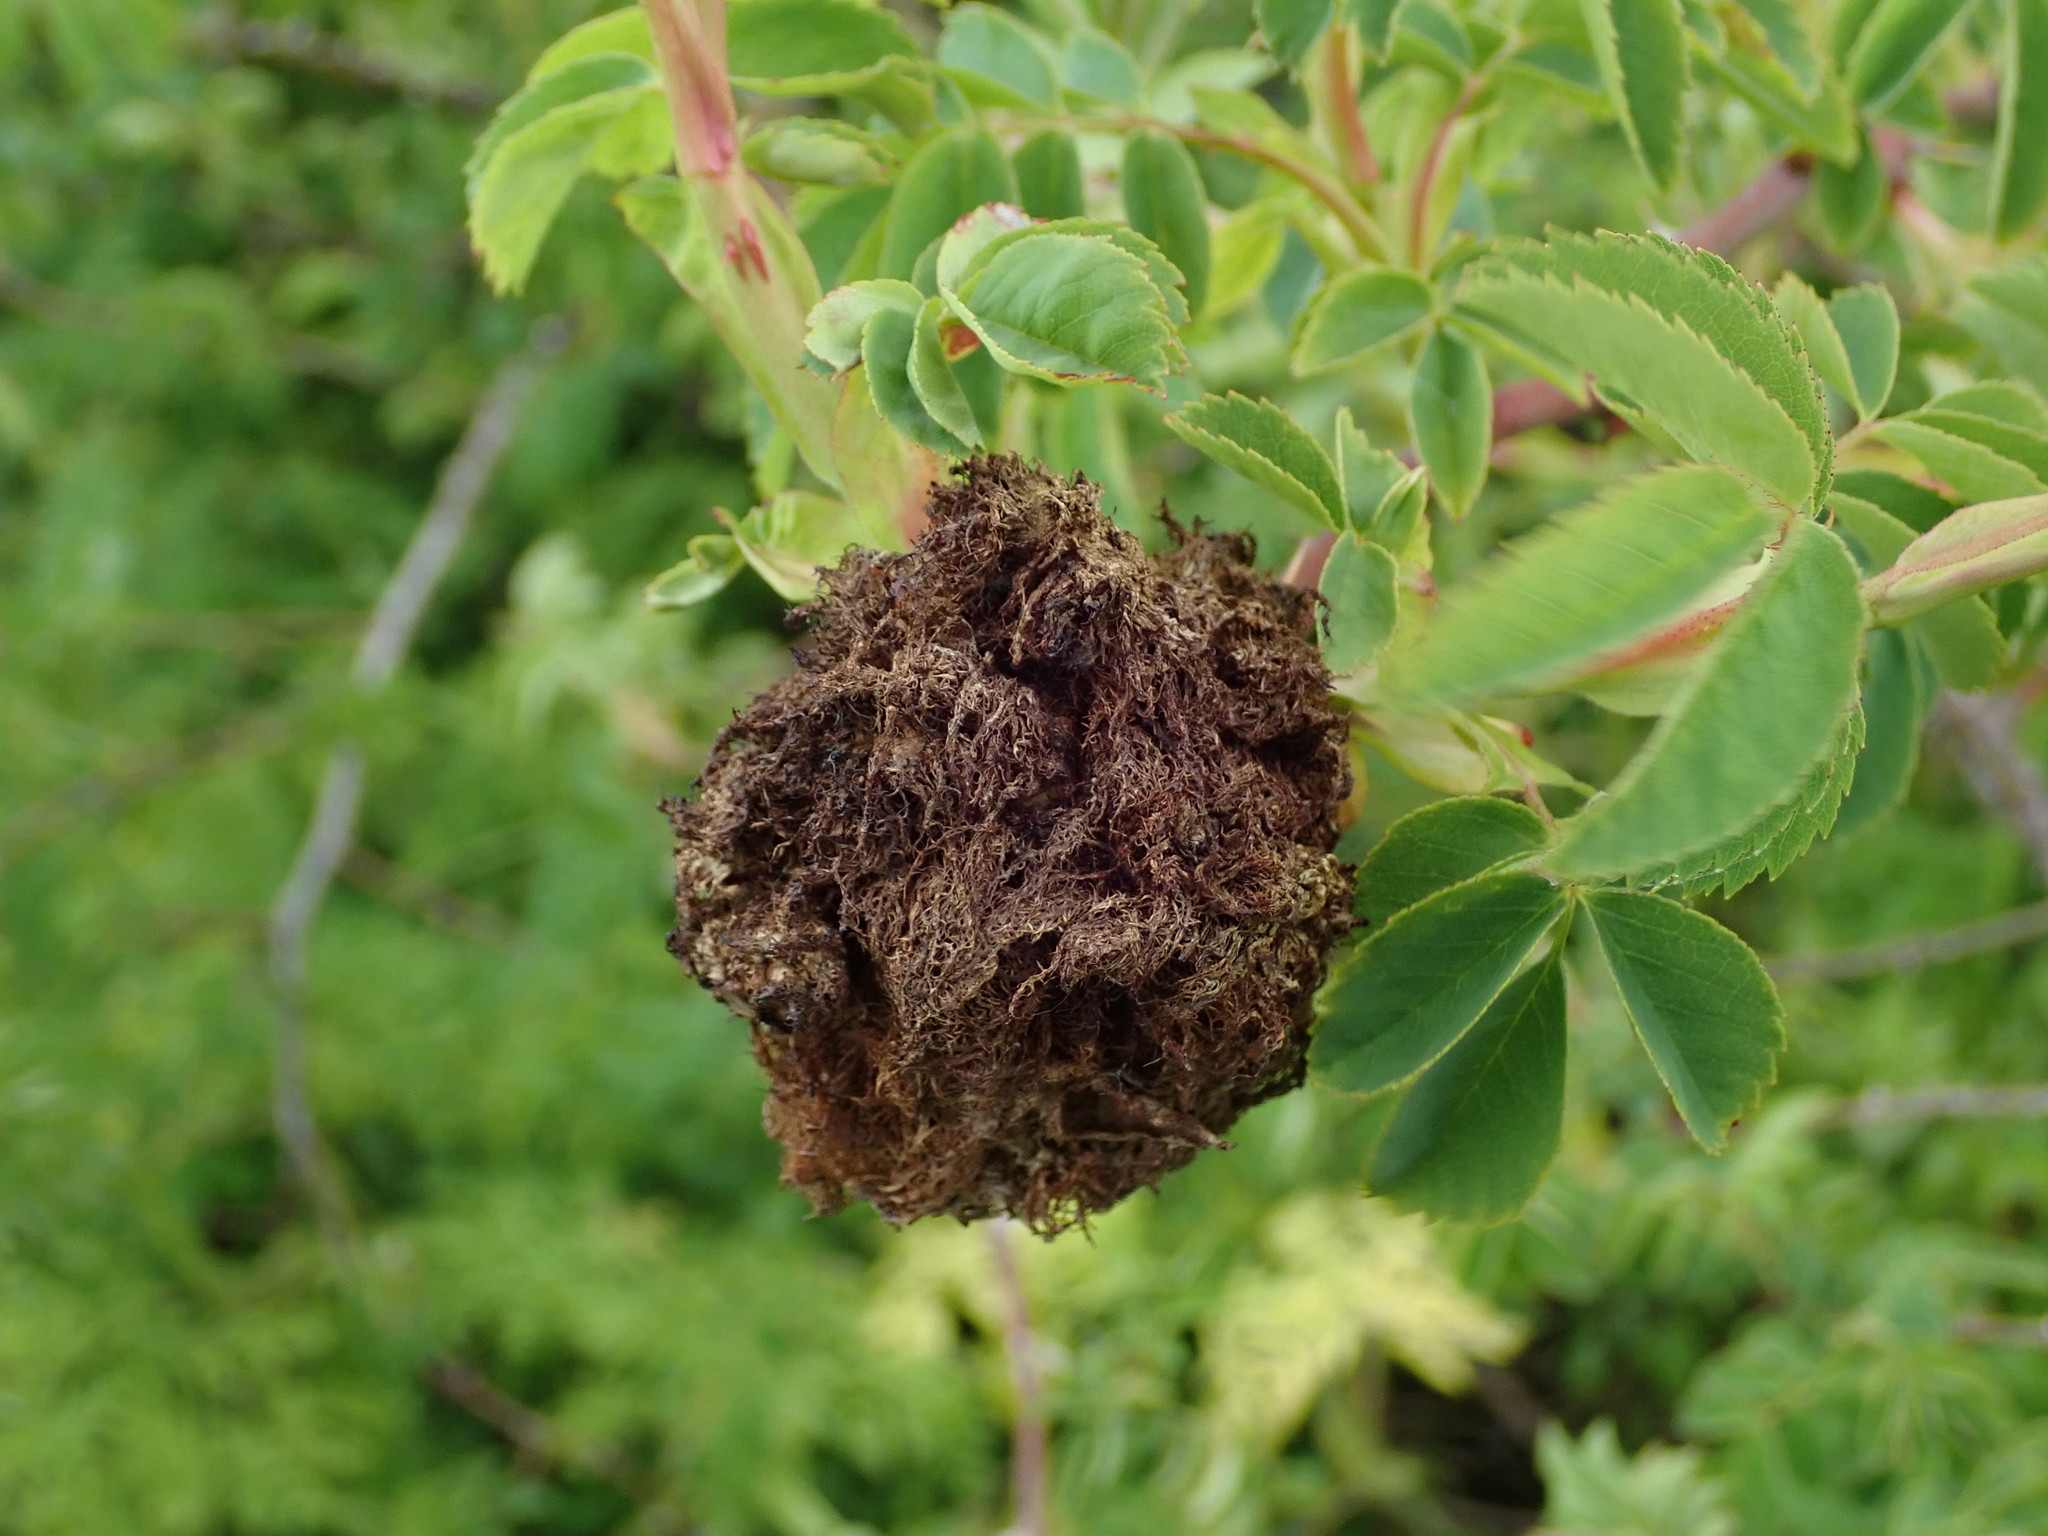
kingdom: Animalia
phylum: Arthropoda
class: Insecta
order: Hymenoptera
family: Cynipidae
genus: Diplolepis
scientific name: Diplolepis rosae
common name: Bedeguar gall
